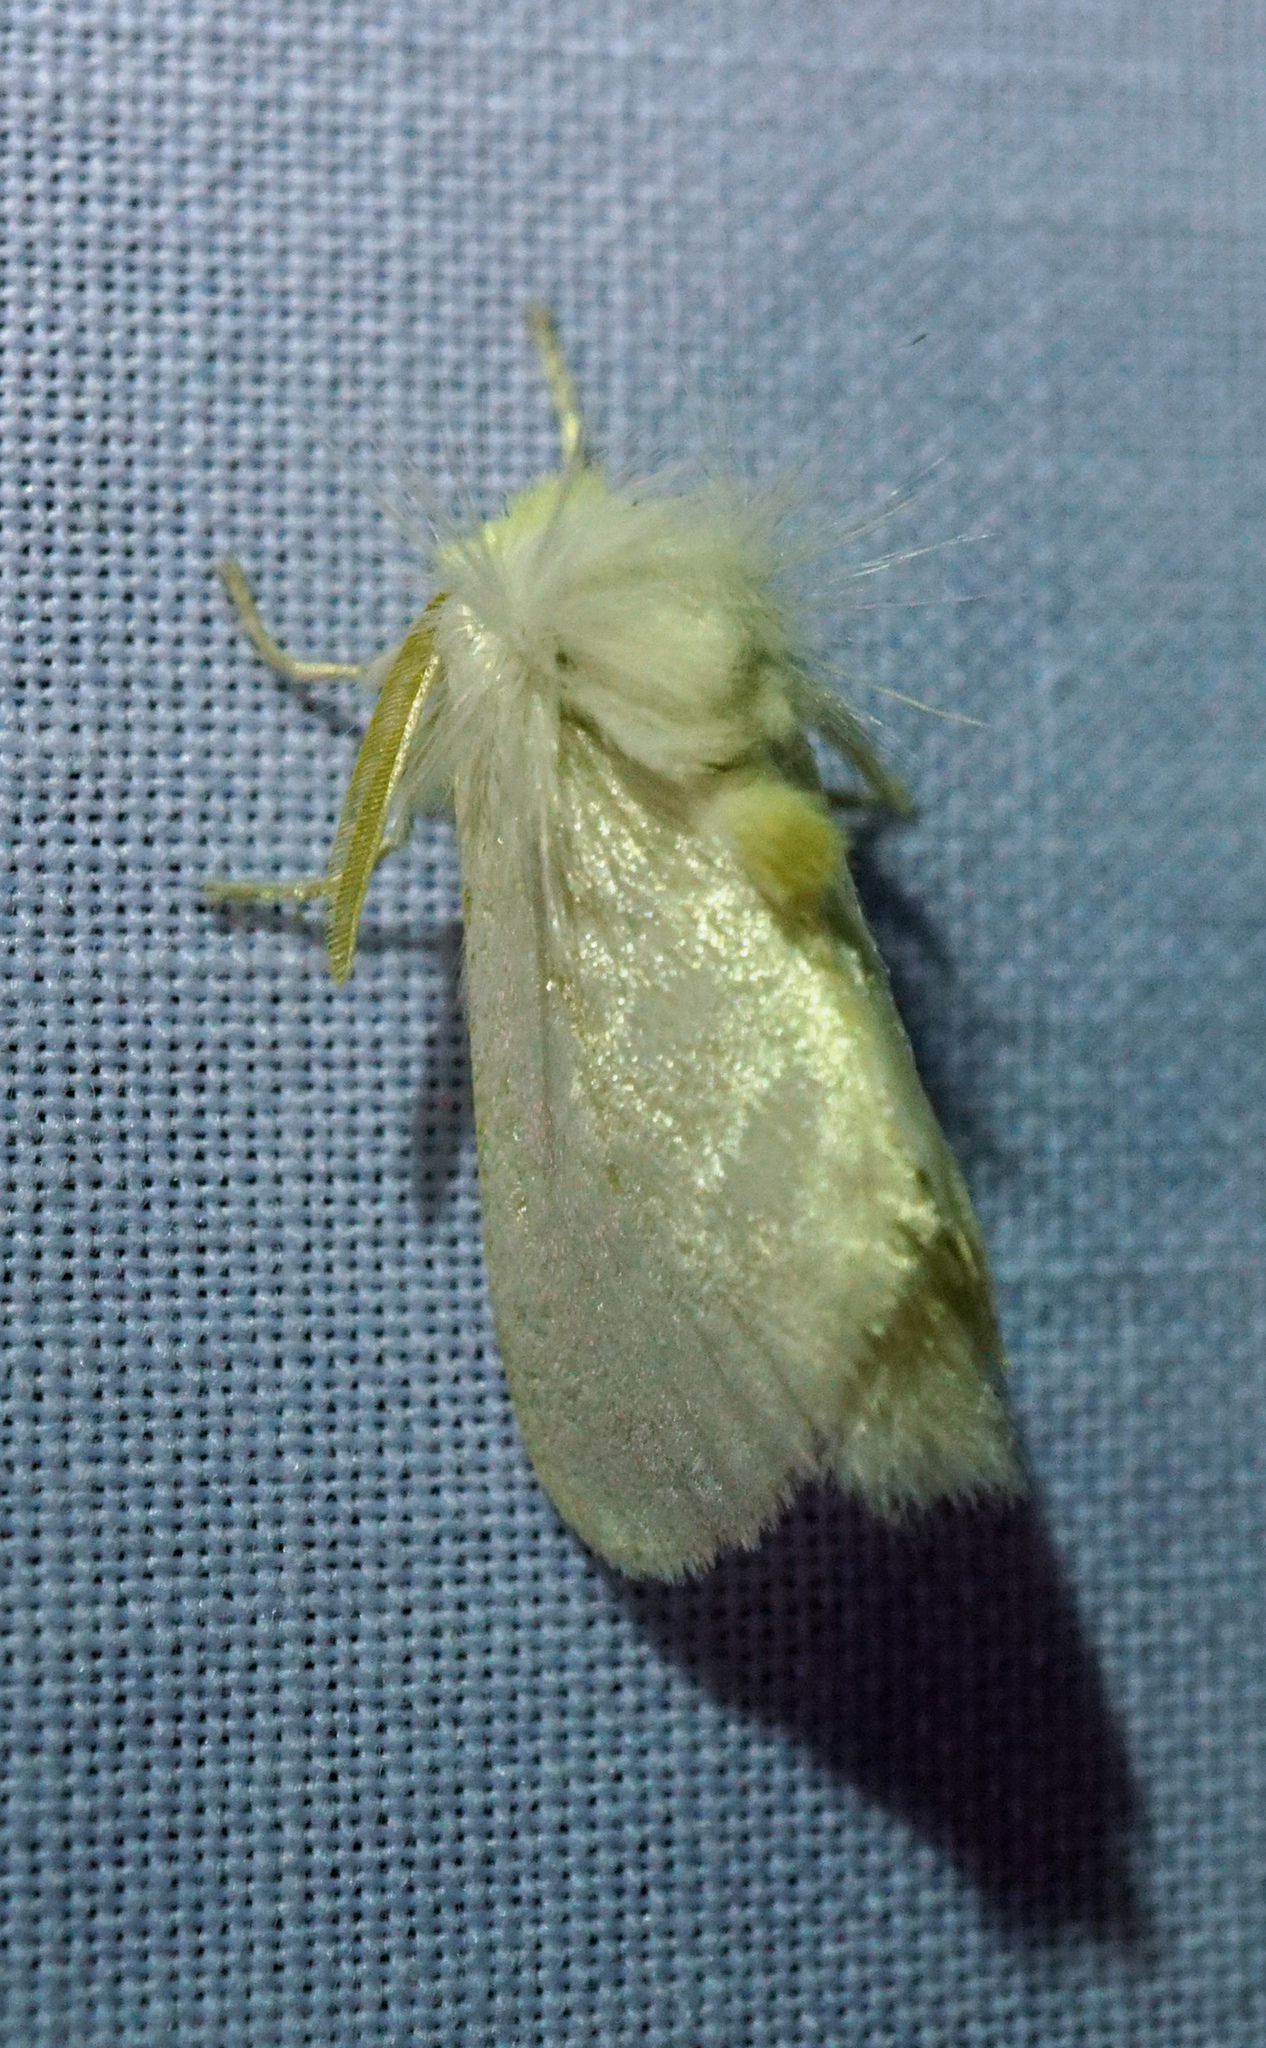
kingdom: Animalia
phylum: Arthropoda
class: Insecta
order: Lepidoptera
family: Megalopygidae
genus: Norape
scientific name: Norape cretata
